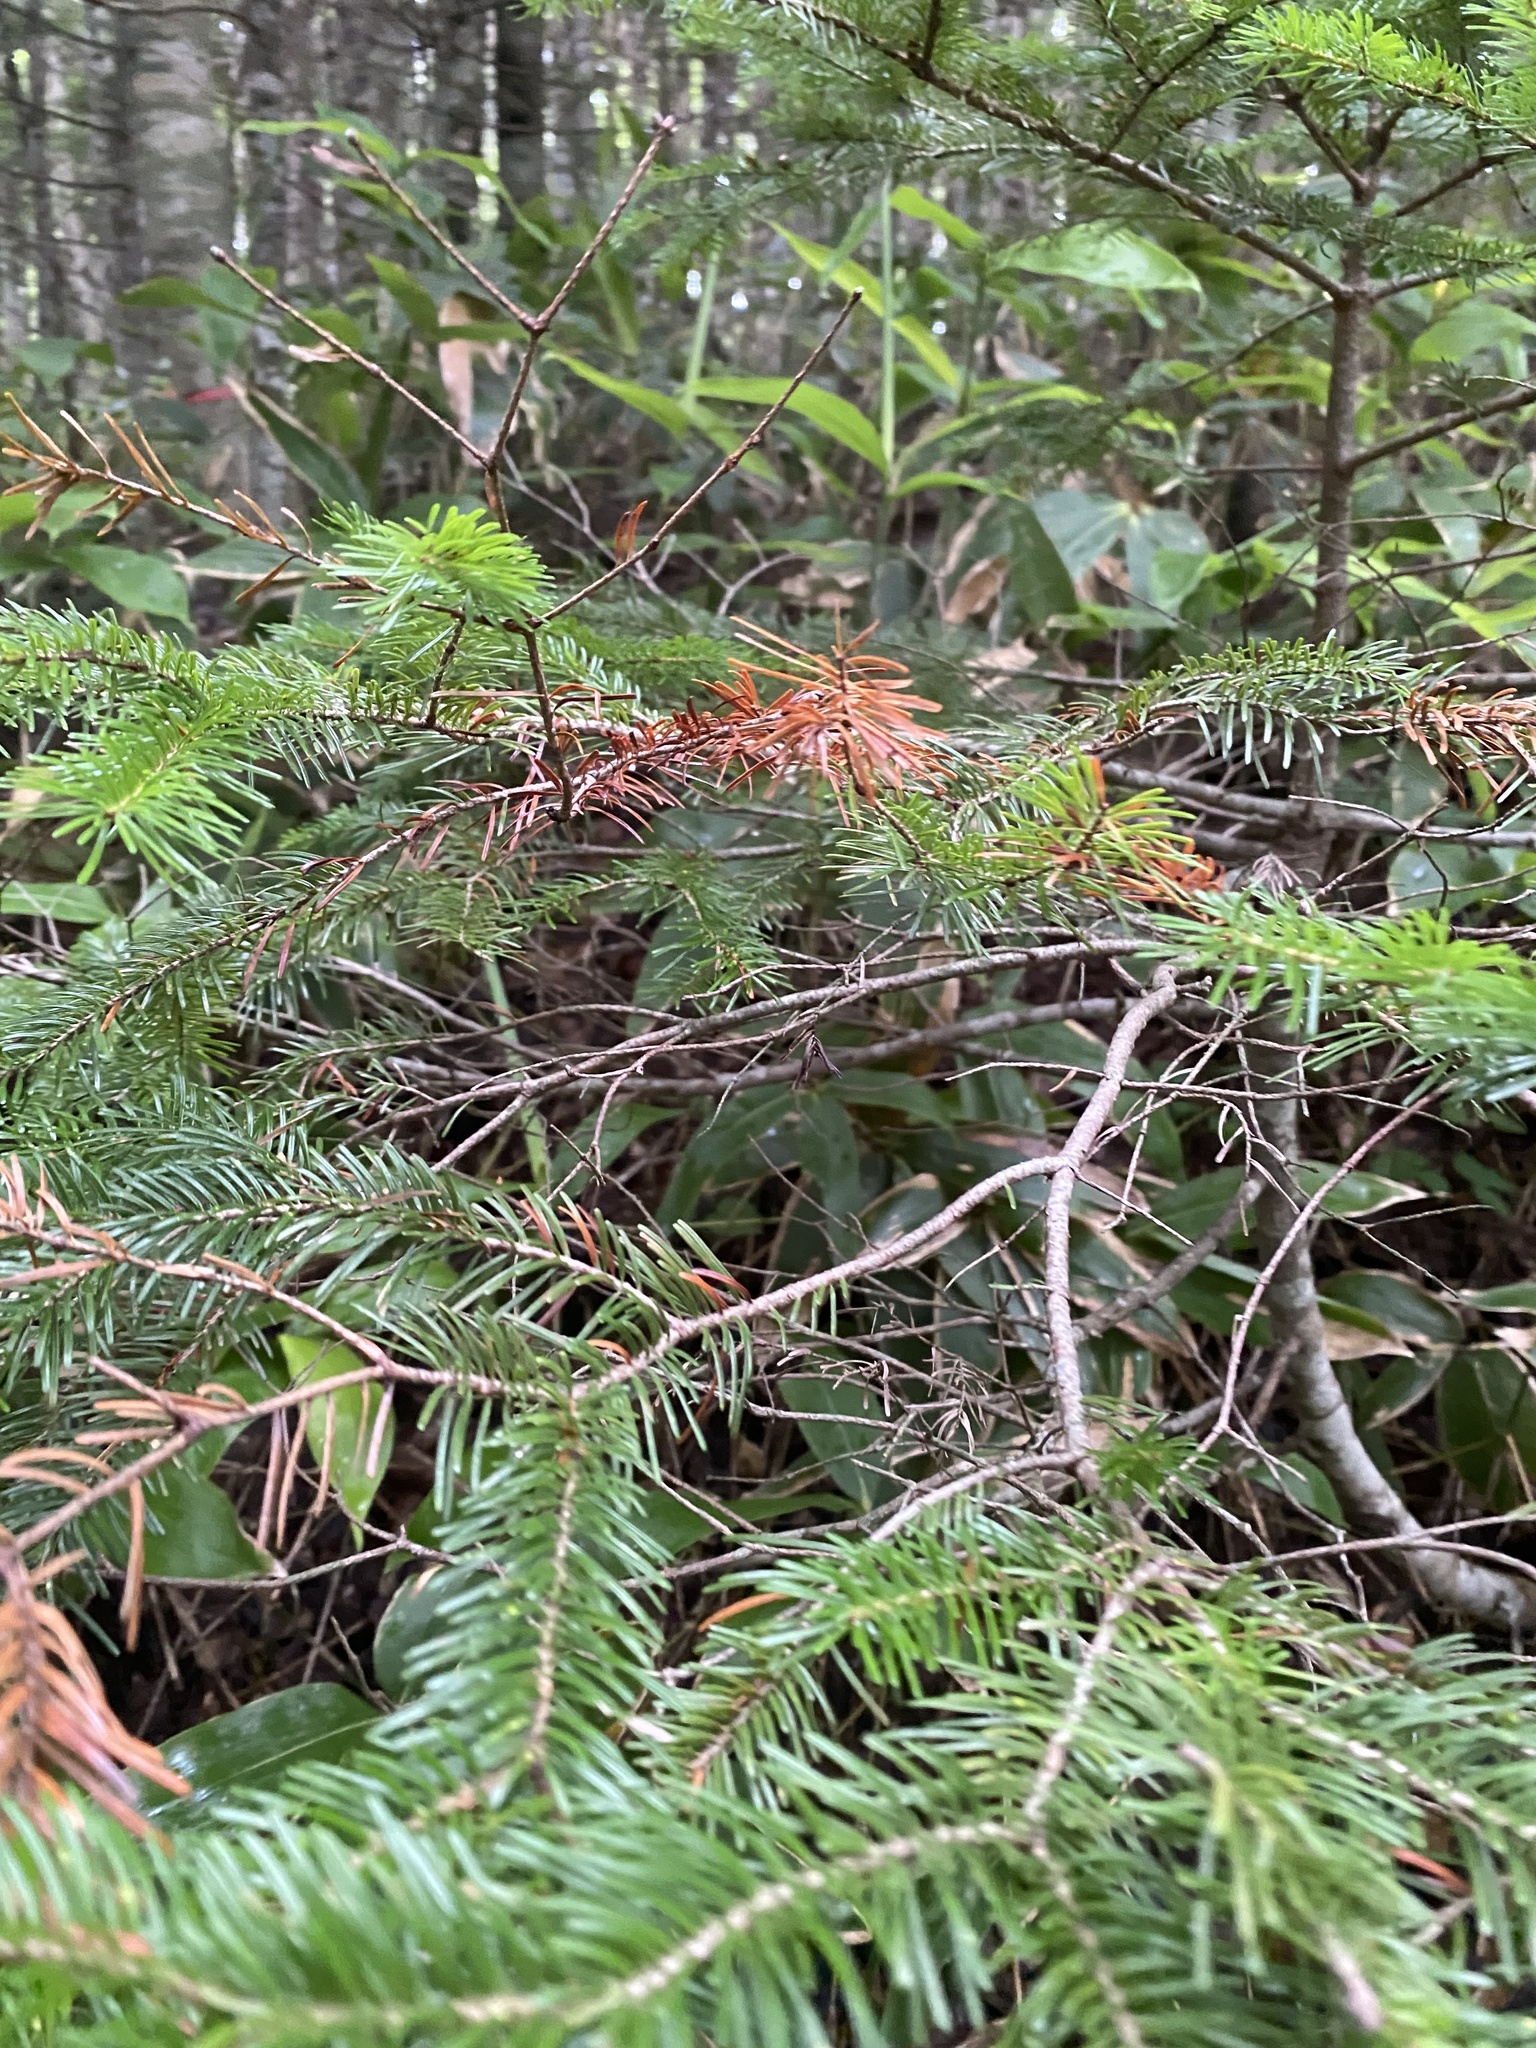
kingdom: Plantae
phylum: Tracheophyta
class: Pinopsida
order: Pinales
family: Pinaceae
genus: Abies
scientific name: Abies sachalinensis
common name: Sakhalin fir
